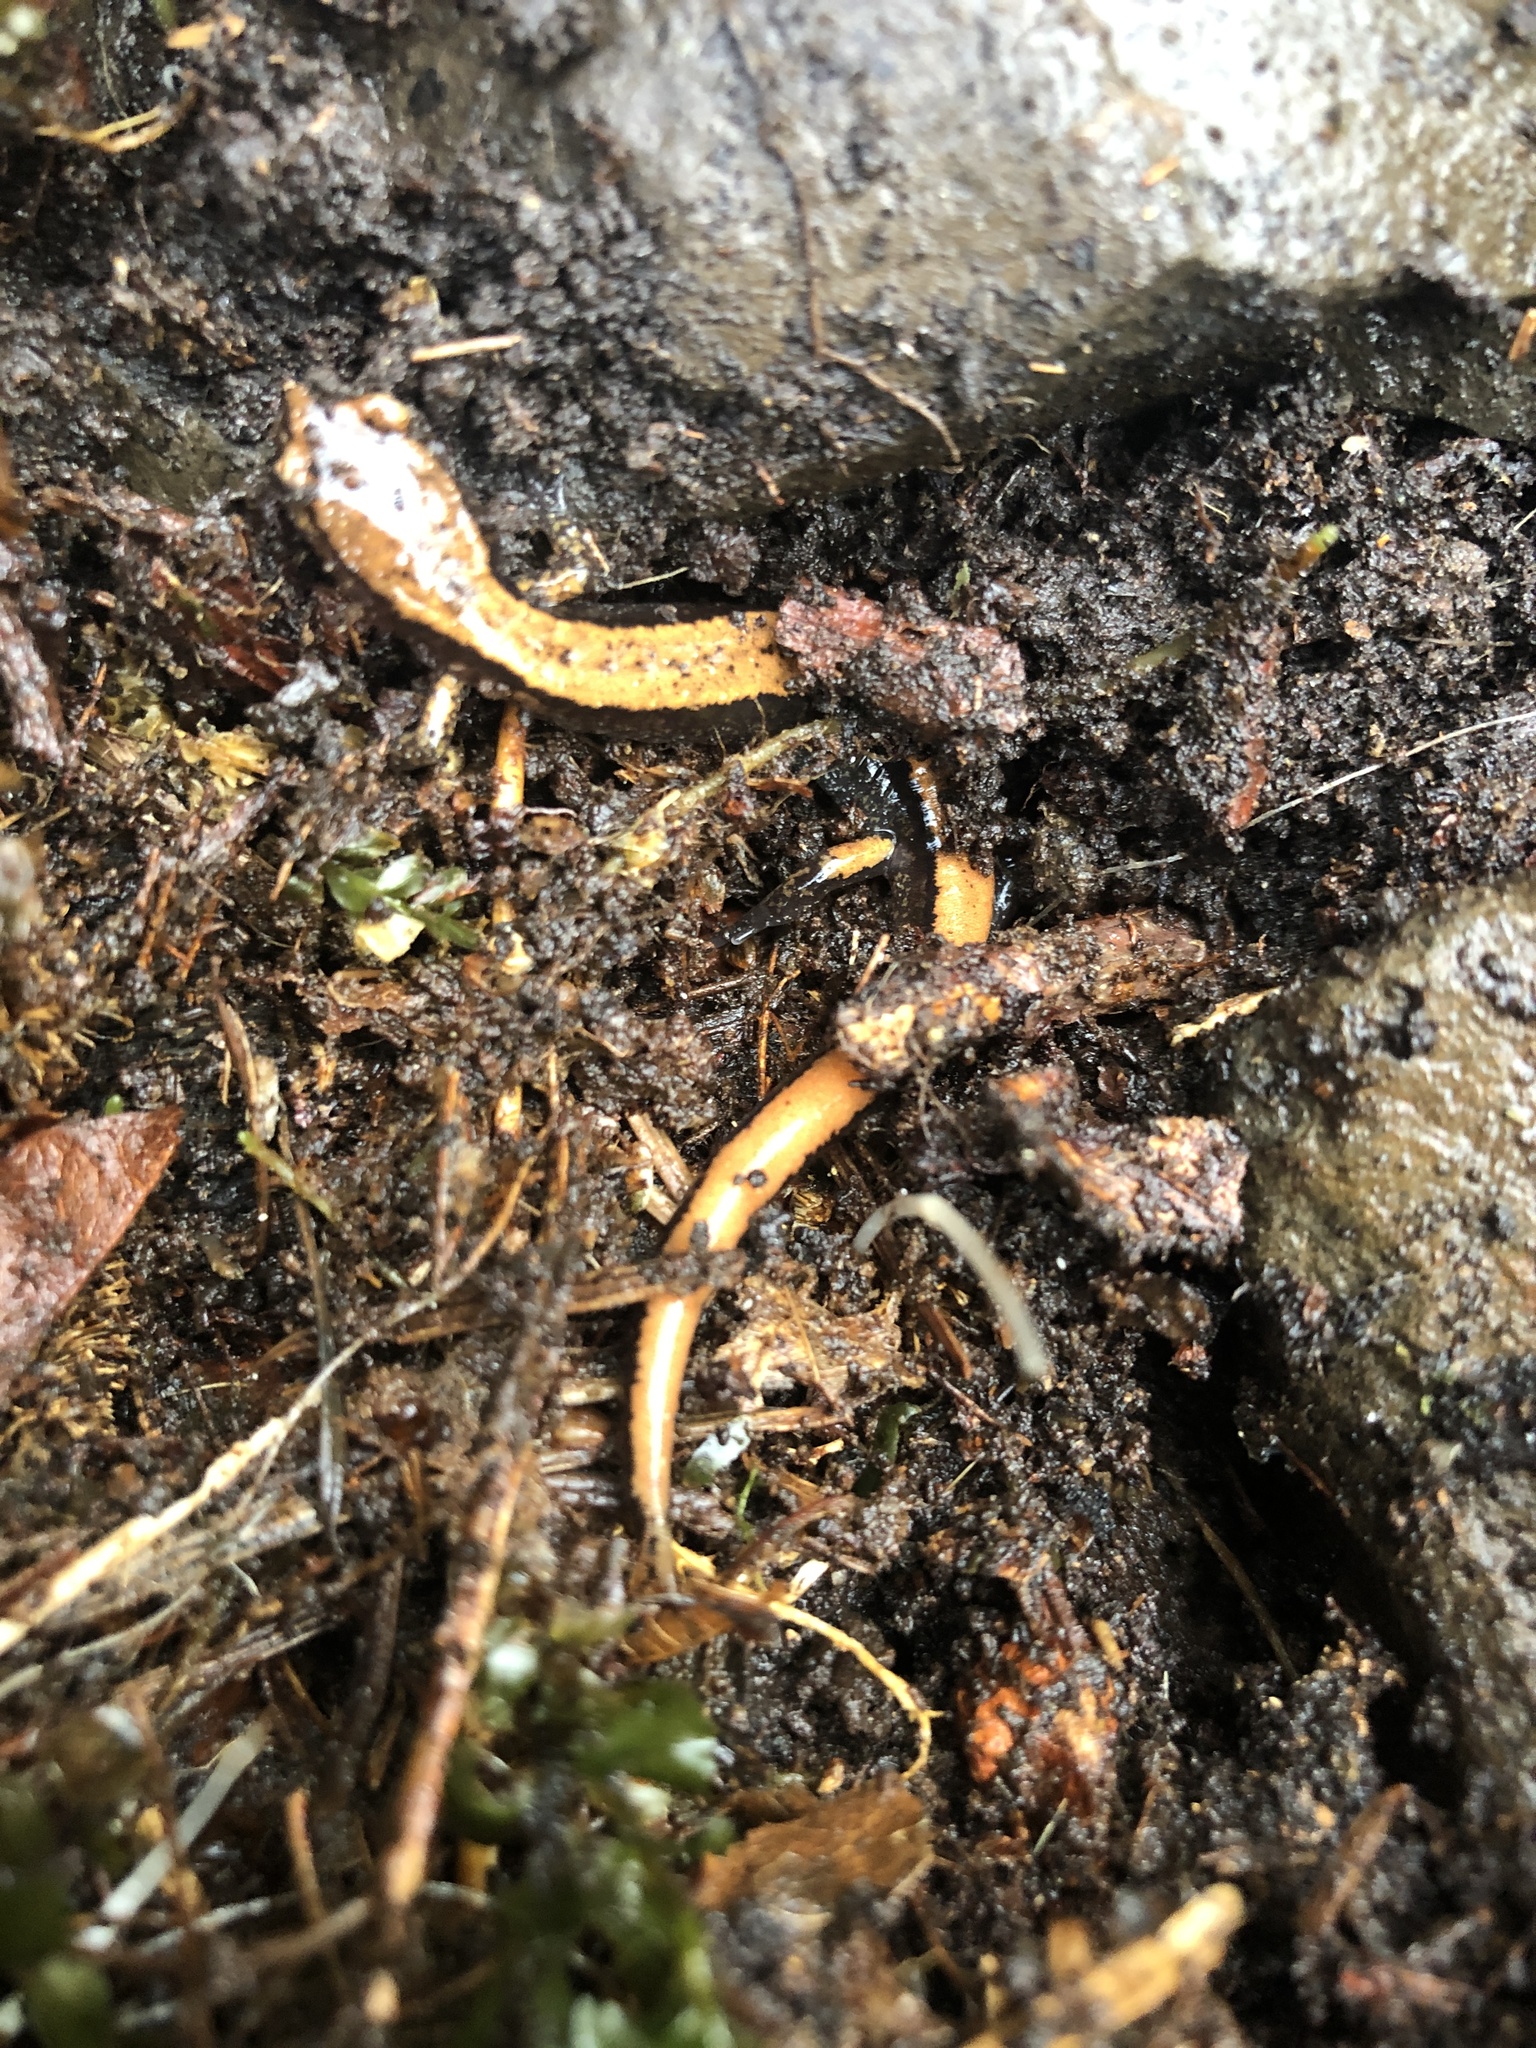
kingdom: Animalia
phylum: Chordata
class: Amphibia
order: Caudata
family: Plethodontidae
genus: Plethodon
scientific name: Plethodon vehiculum
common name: Western red-backed salamander
